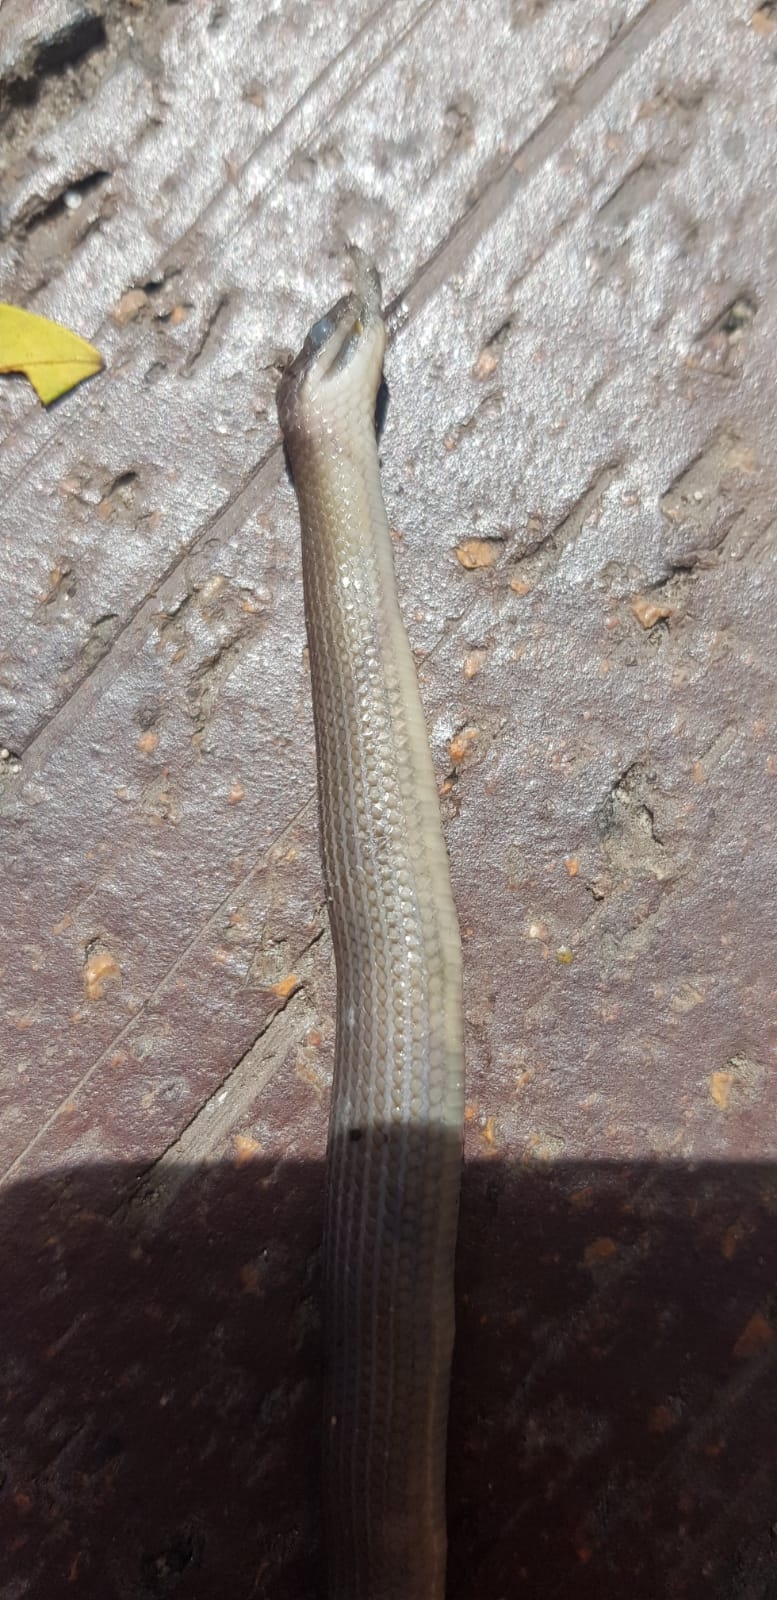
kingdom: Animalia
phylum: Chordata
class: Squamata
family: Lamprophiidae
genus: Lycodonomorphus
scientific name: Lycodonomorphus rufulus
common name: Brown water snake
